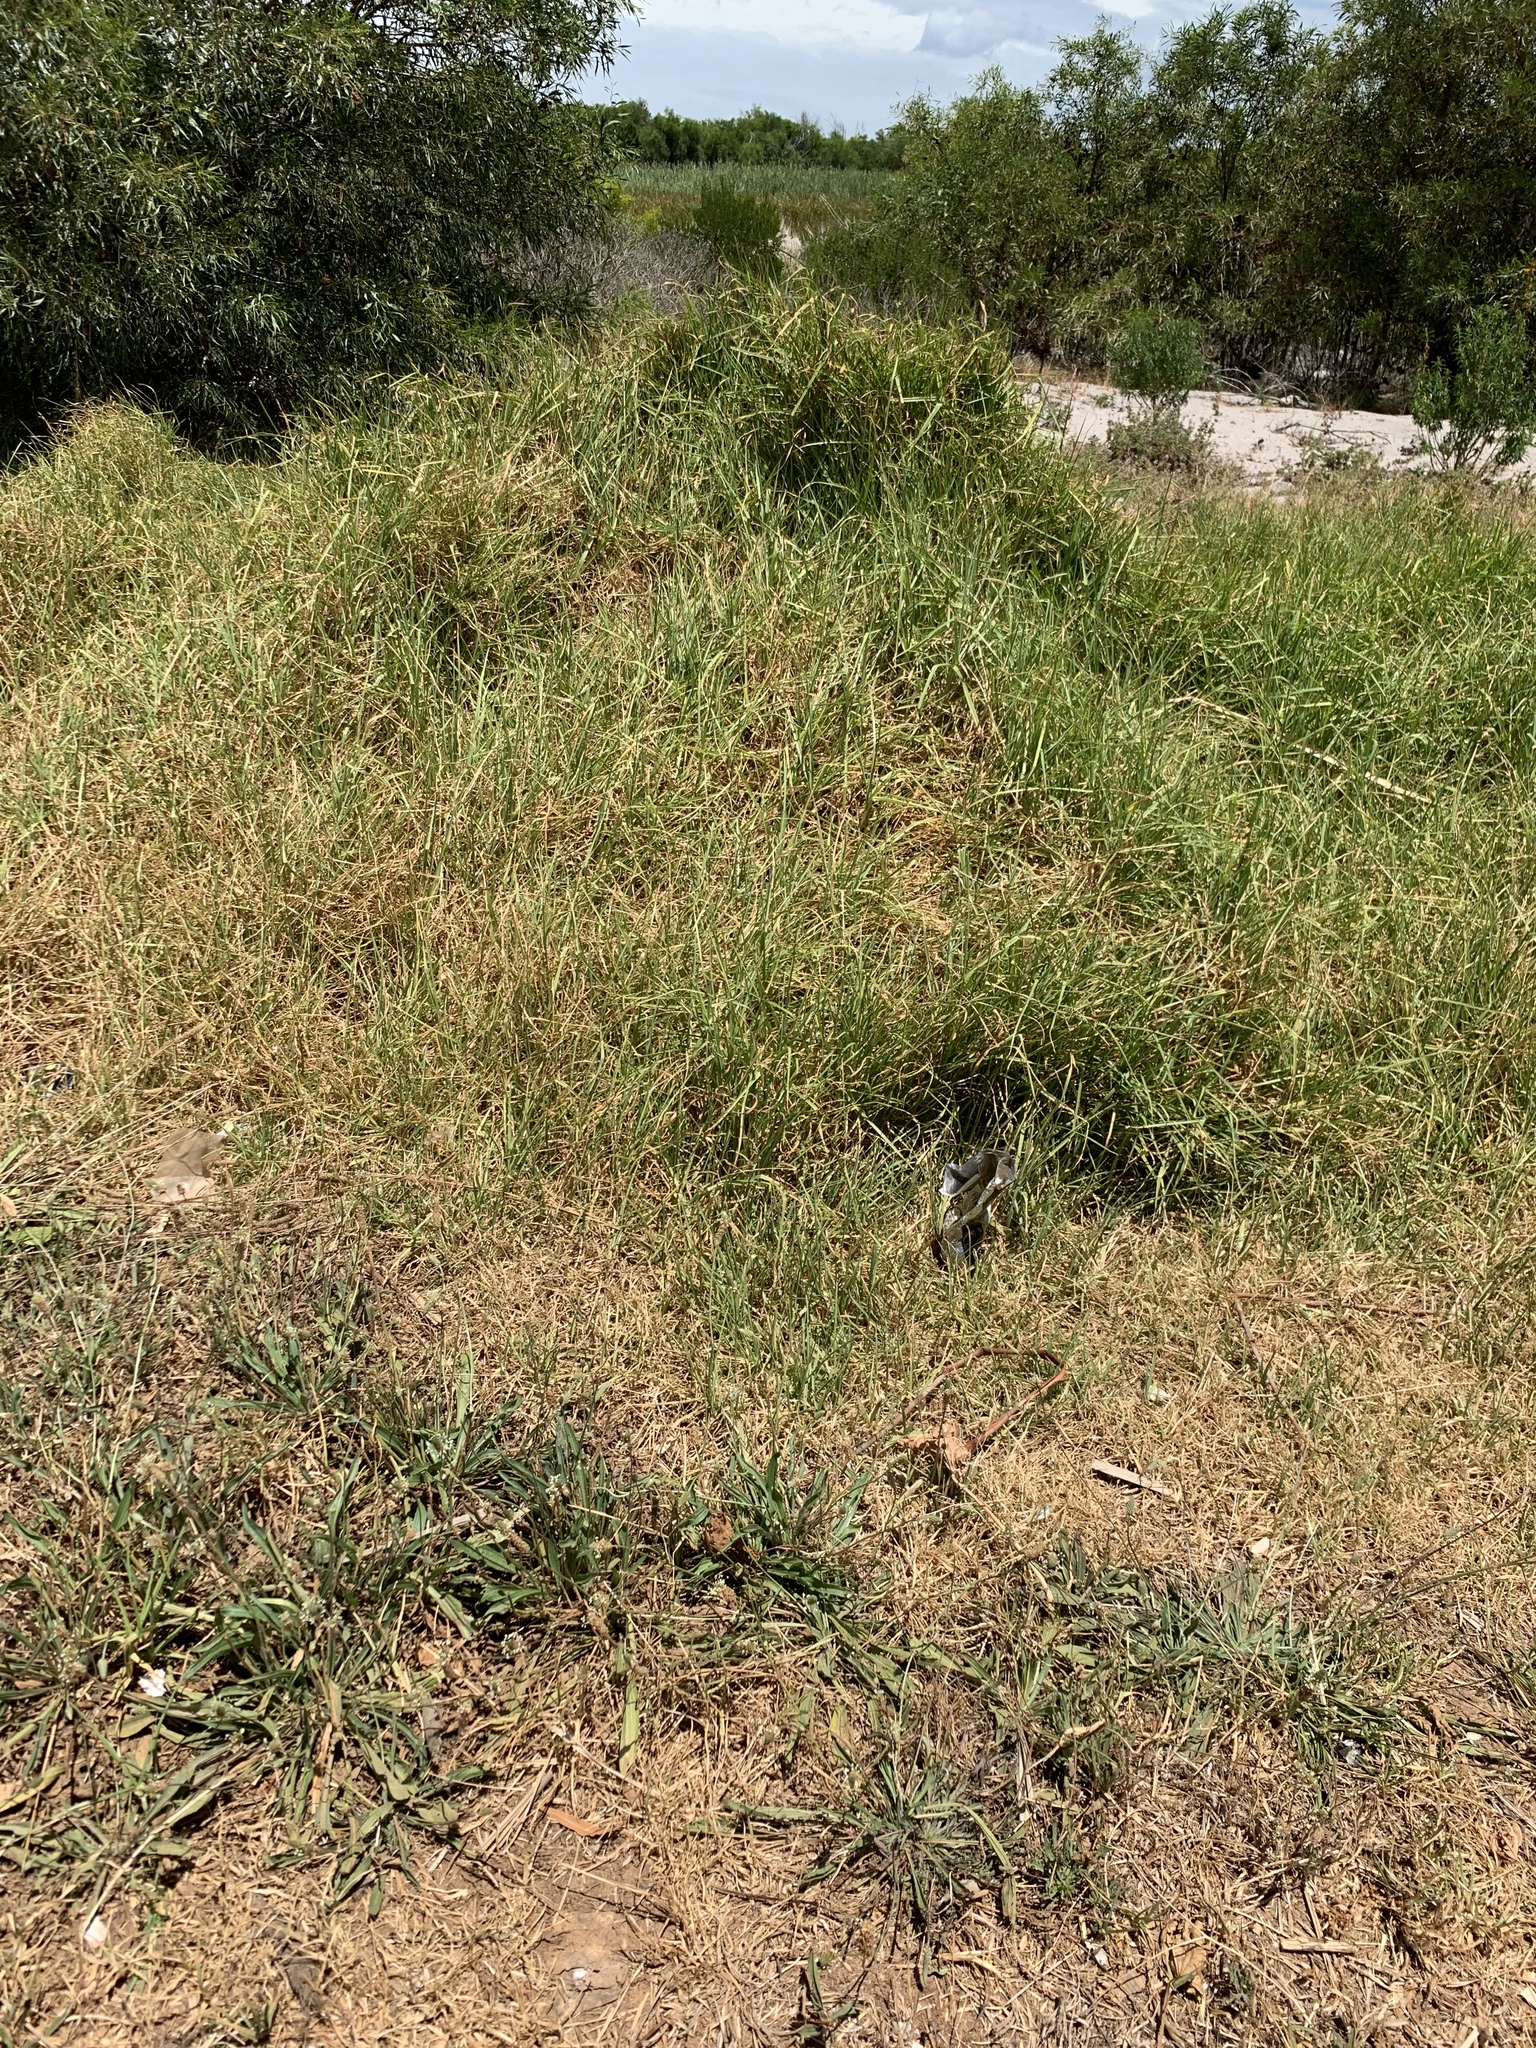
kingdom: Plantae
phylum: Tracheophyta
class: Liliopsida
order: Poales
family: Poaceae
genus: Cenchrus
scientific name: Cenchrus clandestinus
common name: Kikuyugrass
